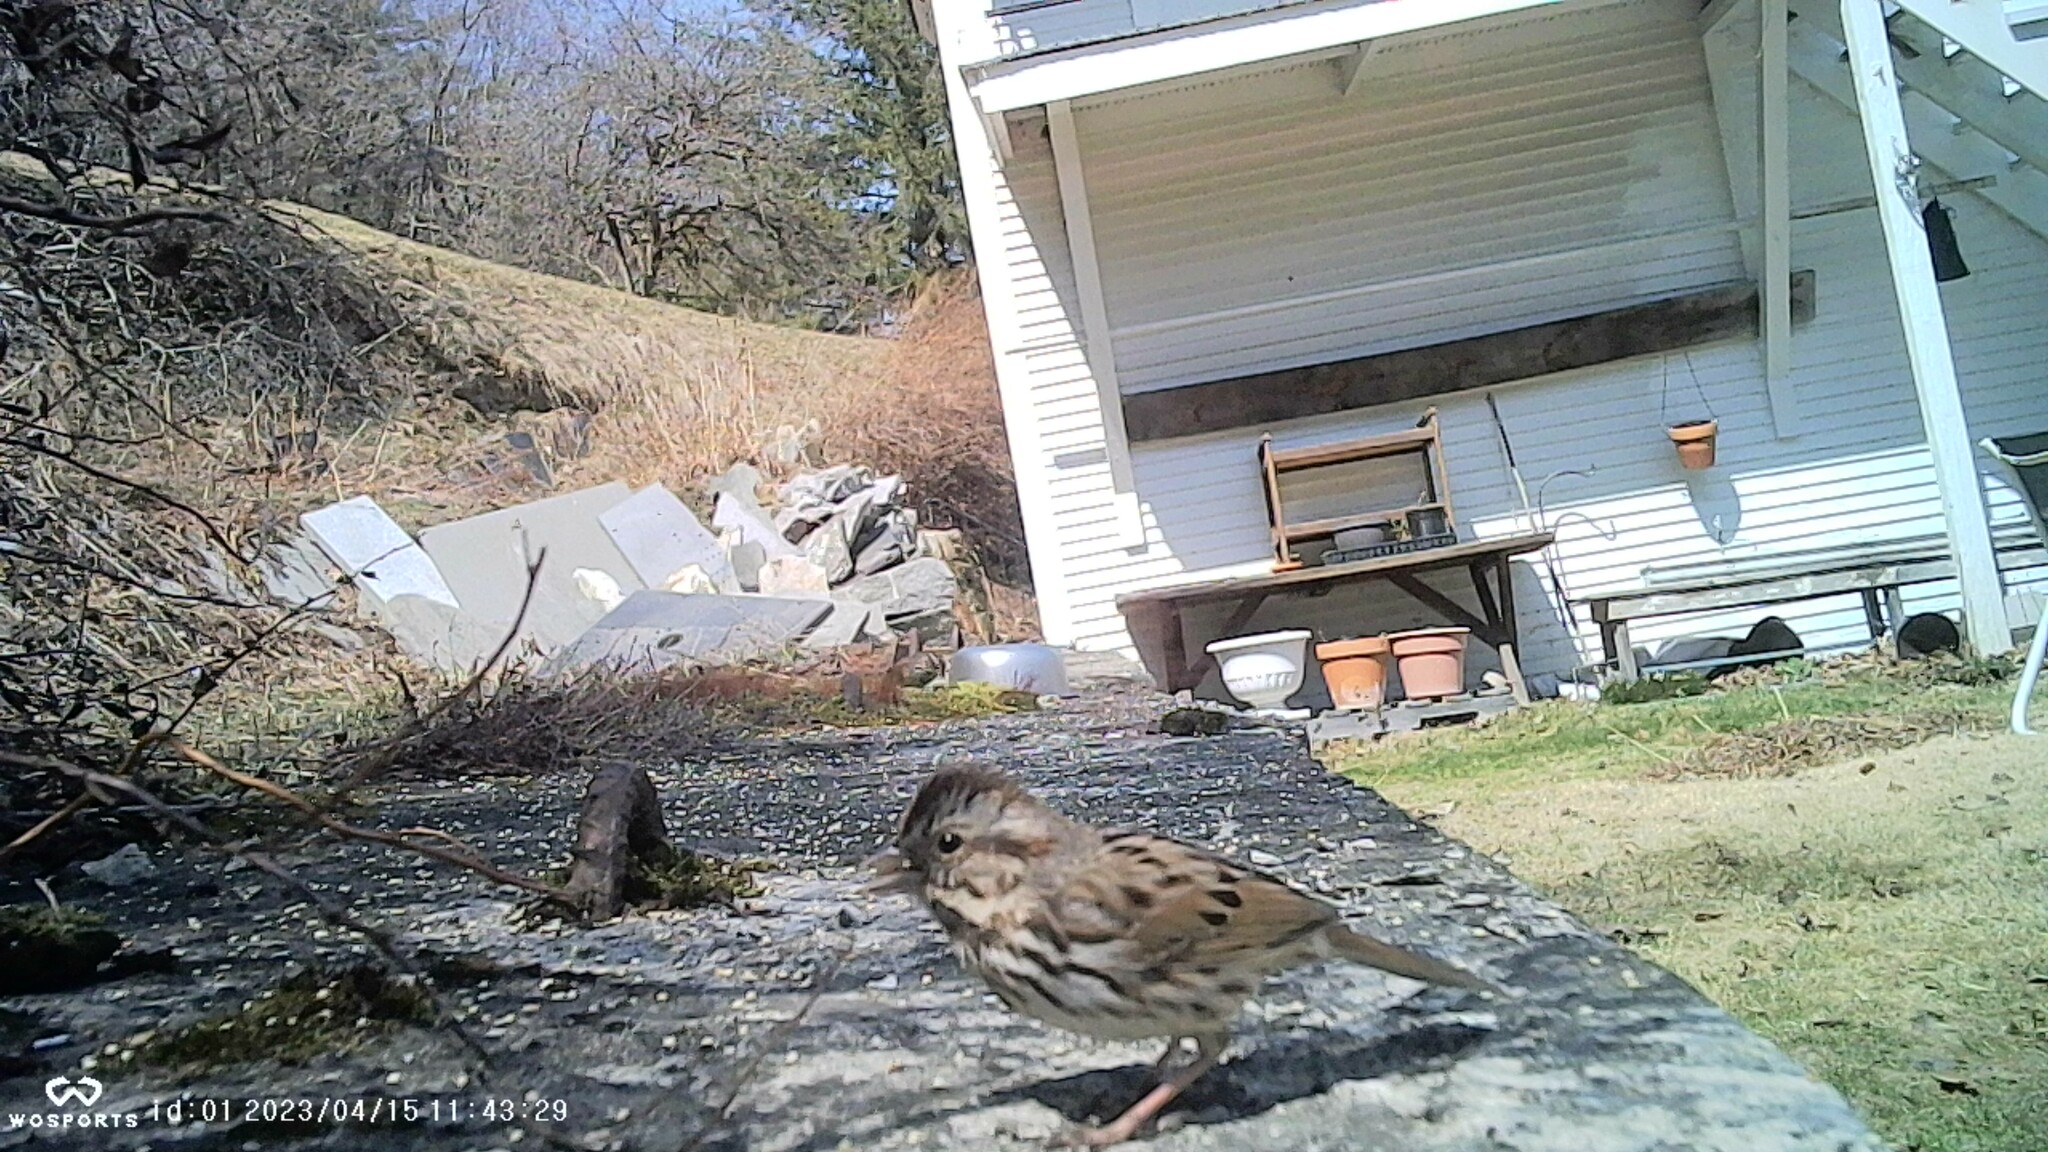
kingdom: Animalia
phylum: Chordata
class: Aves
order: Passeriformes
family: Passerellidae
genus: Melospiza
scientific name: Melospiza melodia
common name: Song sparrow
